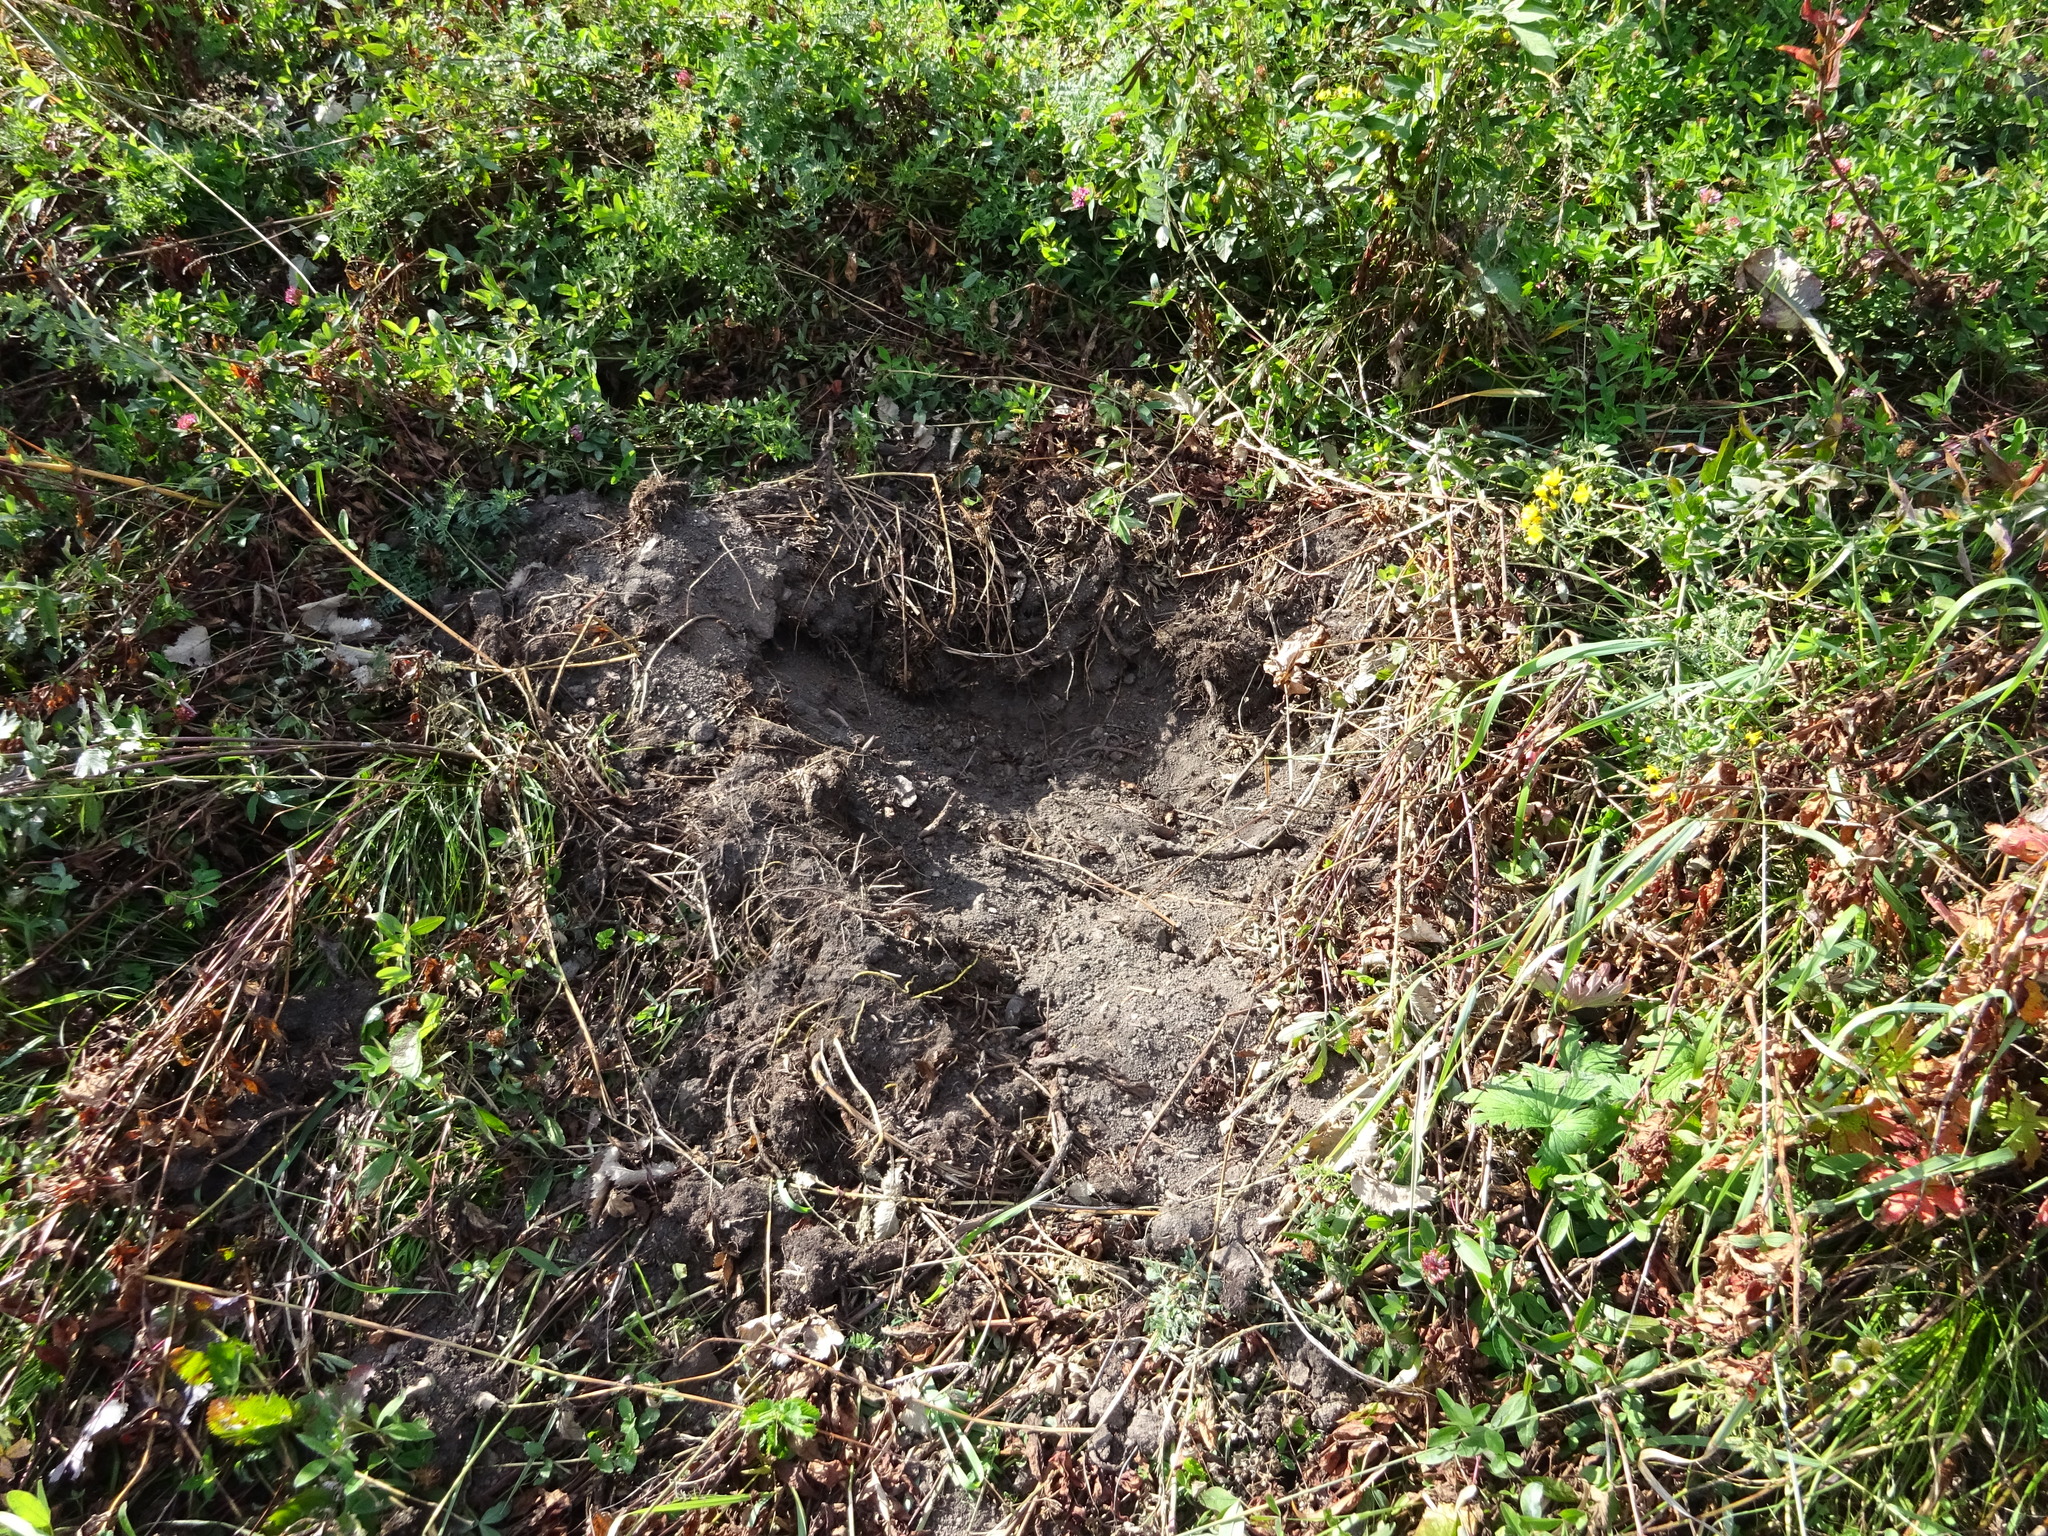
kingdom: Animalia
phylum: Chordata
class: Mammalia
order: Artiodactyla
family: Suidae
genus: Sus
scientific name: Sus scrofa
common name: Wild boar
